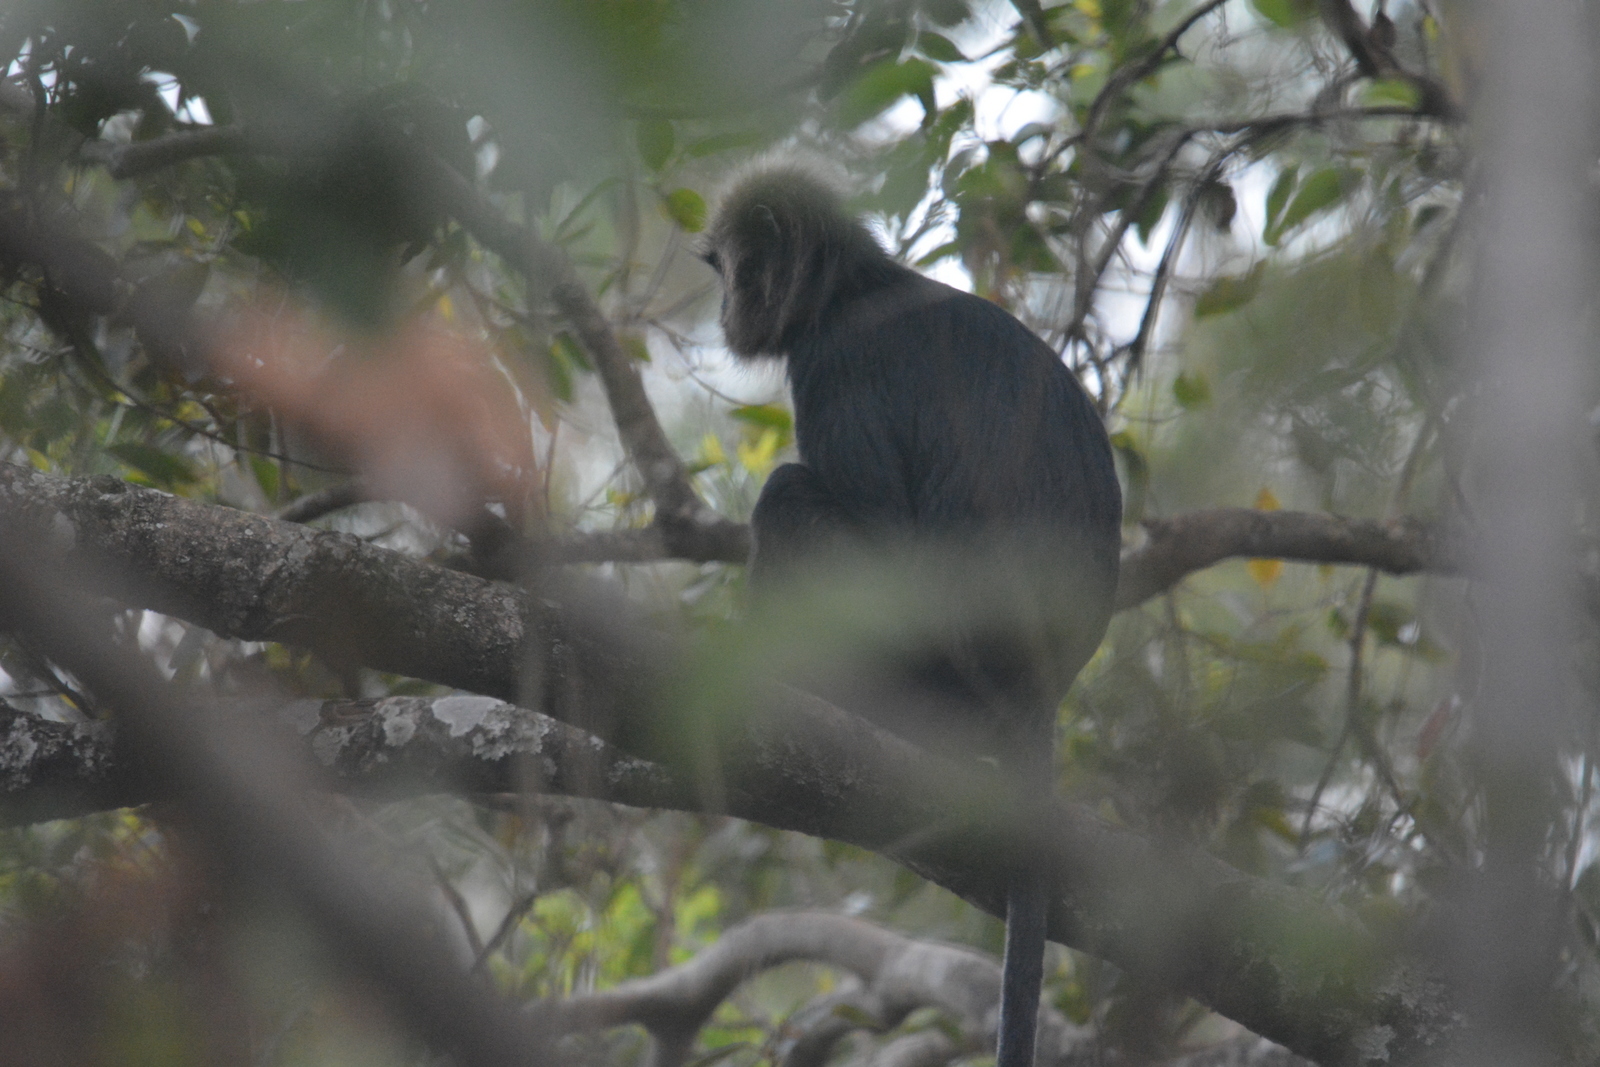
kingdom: Animalia
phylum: Chordata
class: Mammalia
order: Primates
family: Cercopithecidae
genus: Semnopithecus
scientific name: Semnopithecus johnii
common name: Nilgiri langur
